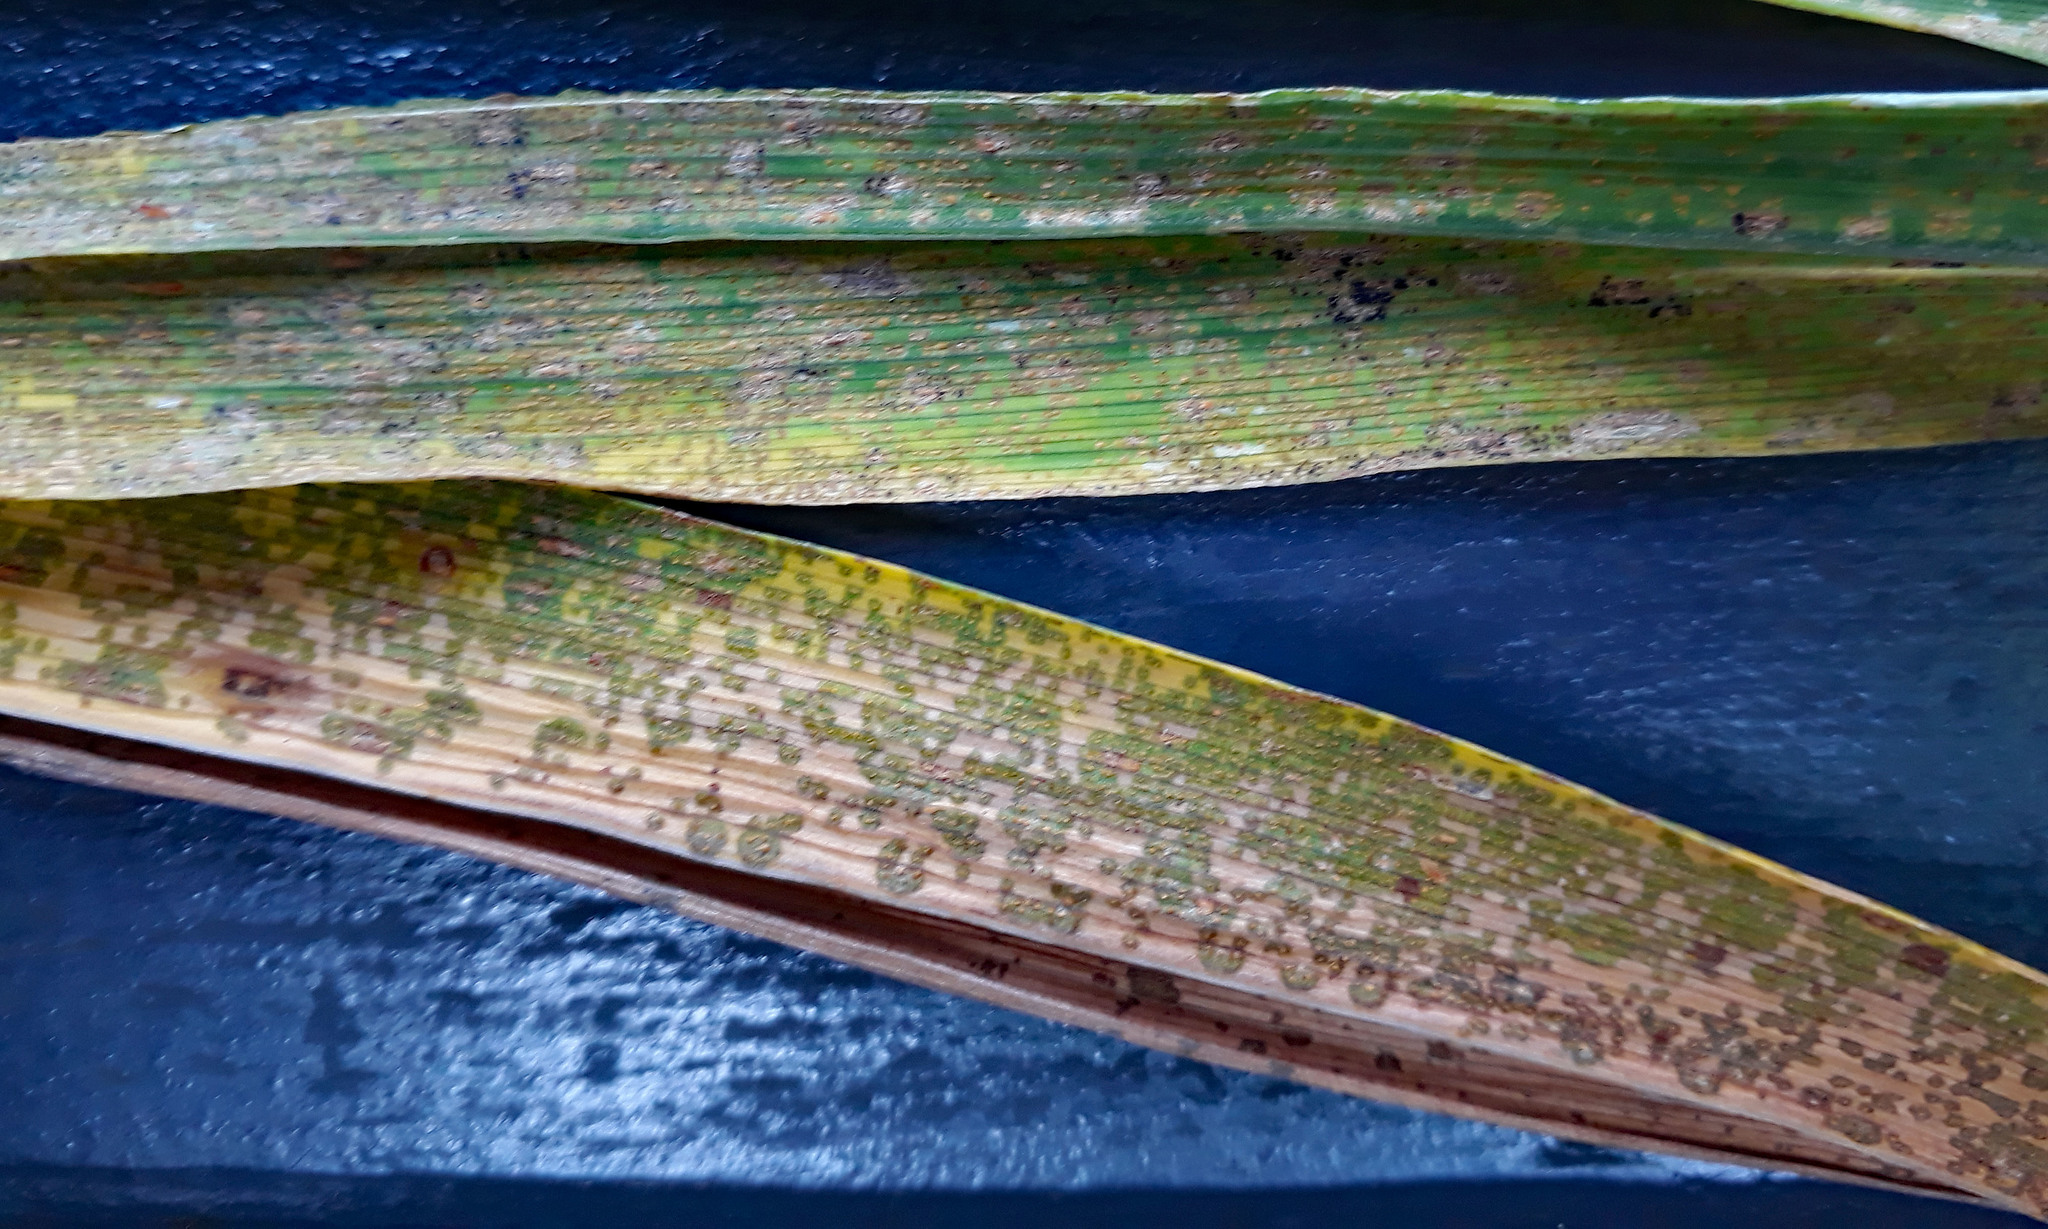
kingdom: Fungi
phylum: Basidiomycota
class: Pucciniomycetes
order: Pucciniales
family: Pucciniaceae
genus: Puccinia
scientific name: Puccinia hemerocallidis
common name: Rust fungus
